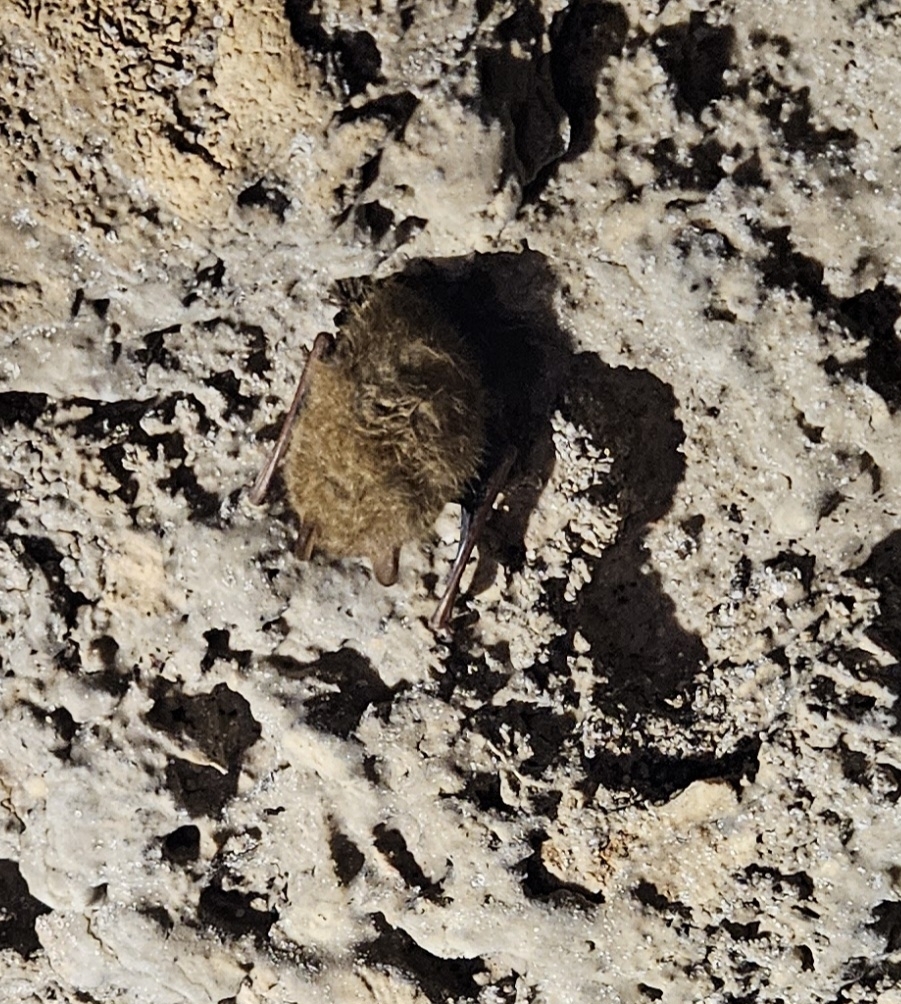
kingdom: Animalia
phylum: Chordata
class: Mammalia
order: Chiroptera
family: Vespertilionidae
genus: Perimyotis
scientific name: Perimyotis subflavus
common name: Eastern pipistrelle
